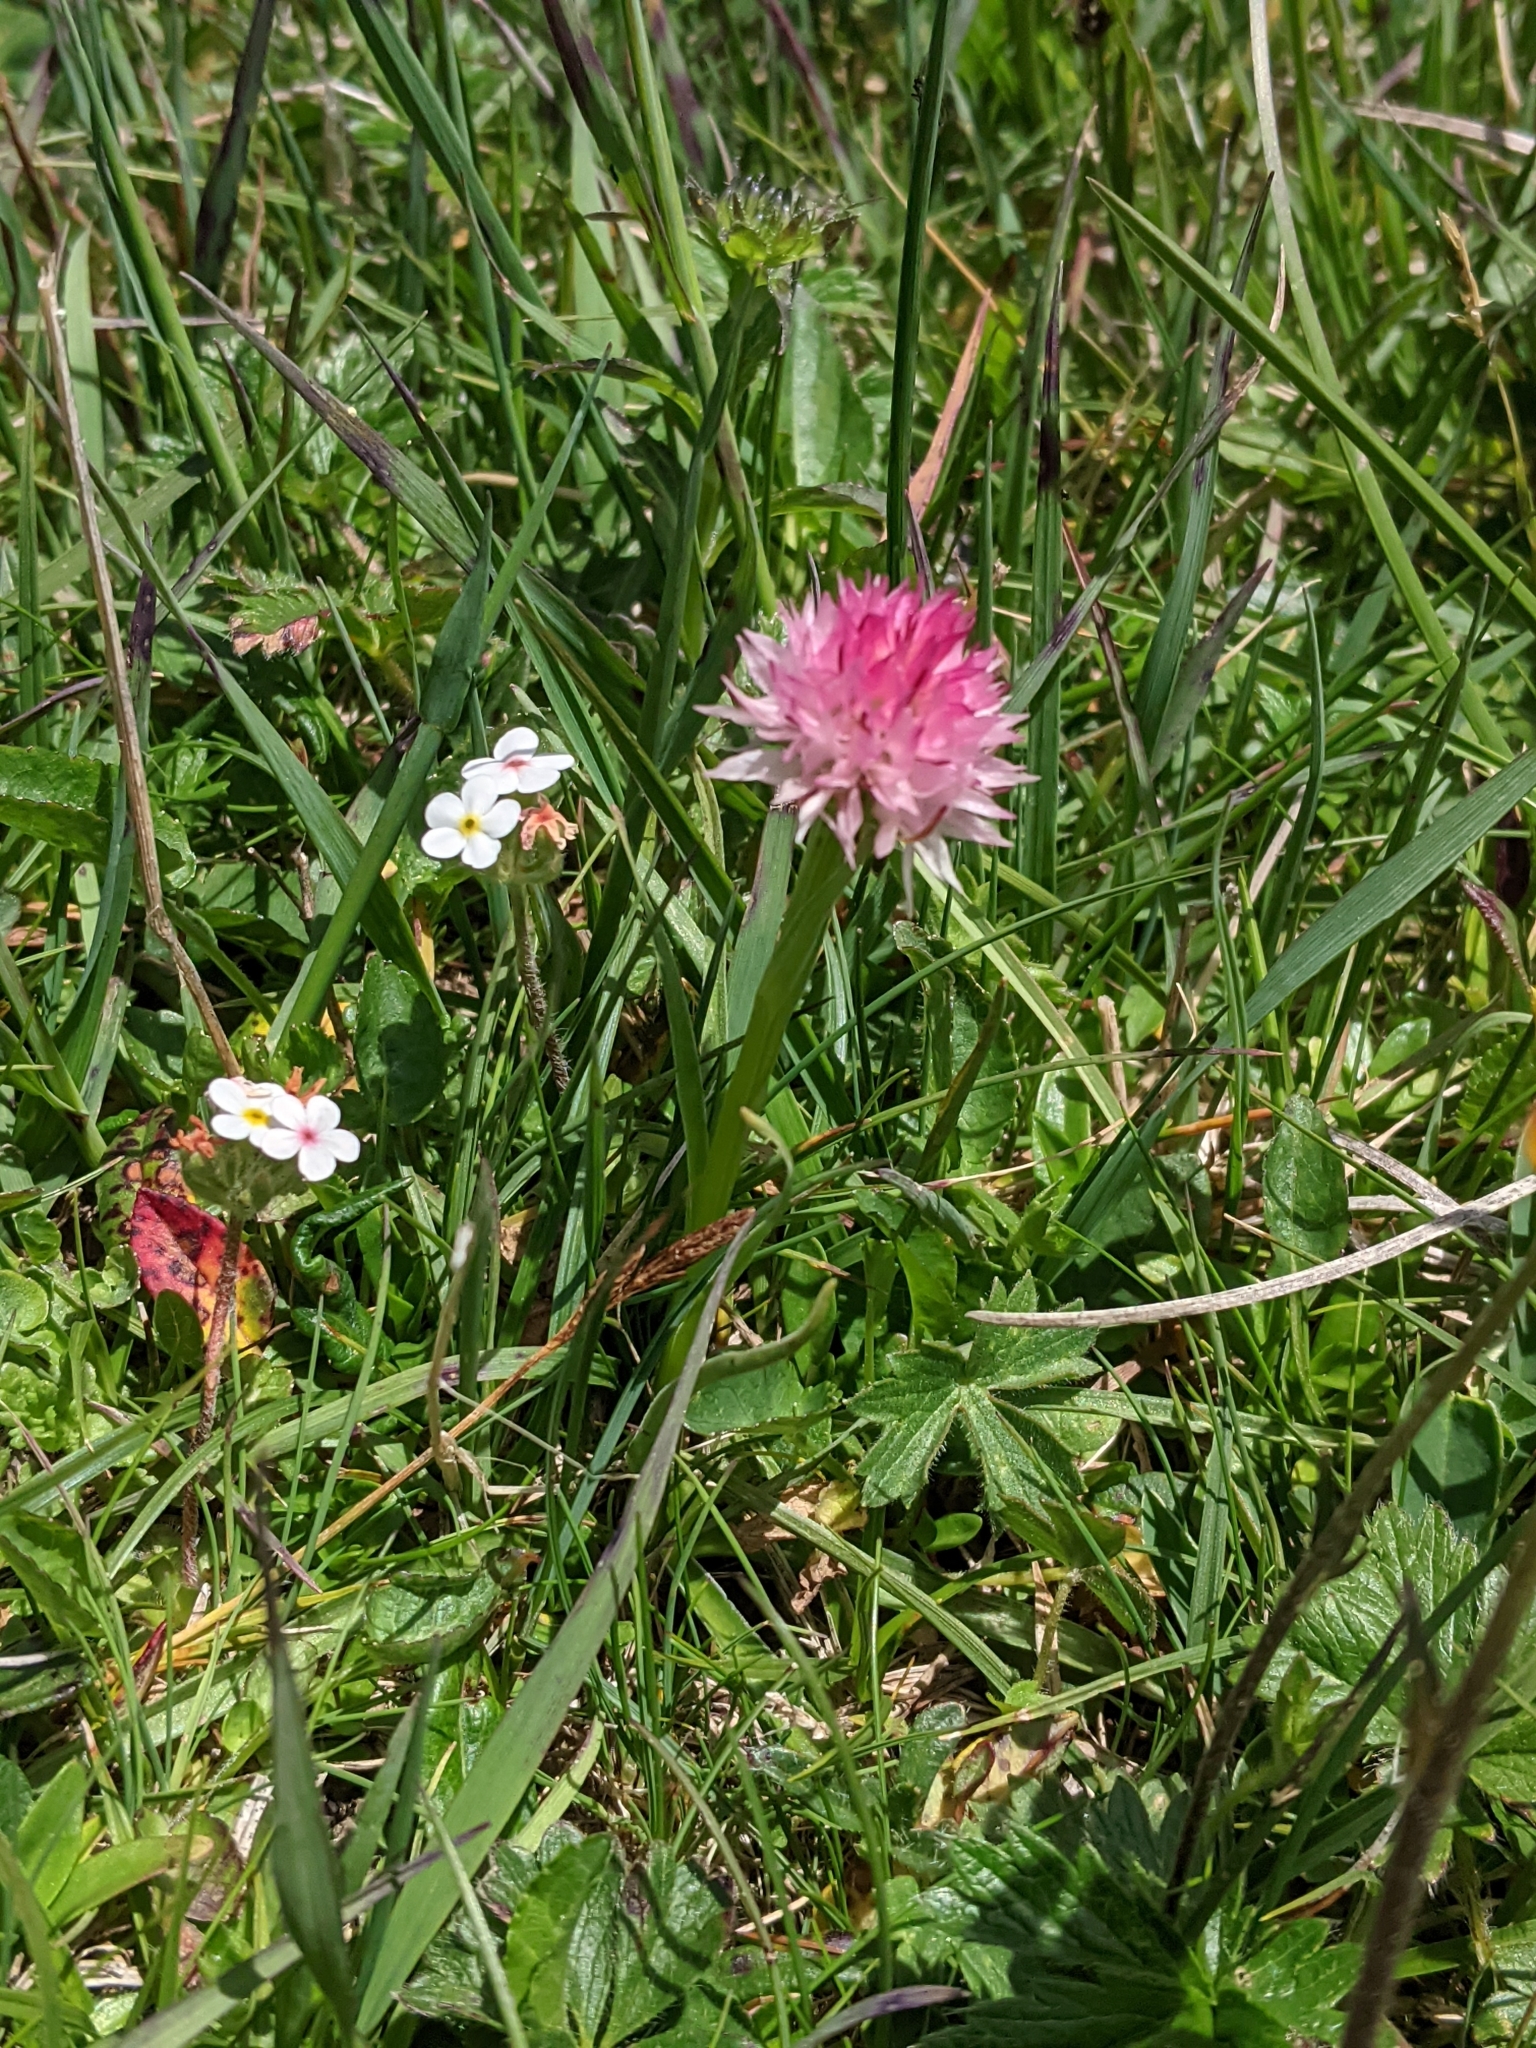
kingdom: Plantae
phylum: Tracheophyta
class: Liliopsida
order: Asparagales
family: Orchidaceae
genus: Gymnadenia
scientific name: Gymnadenia widderi
